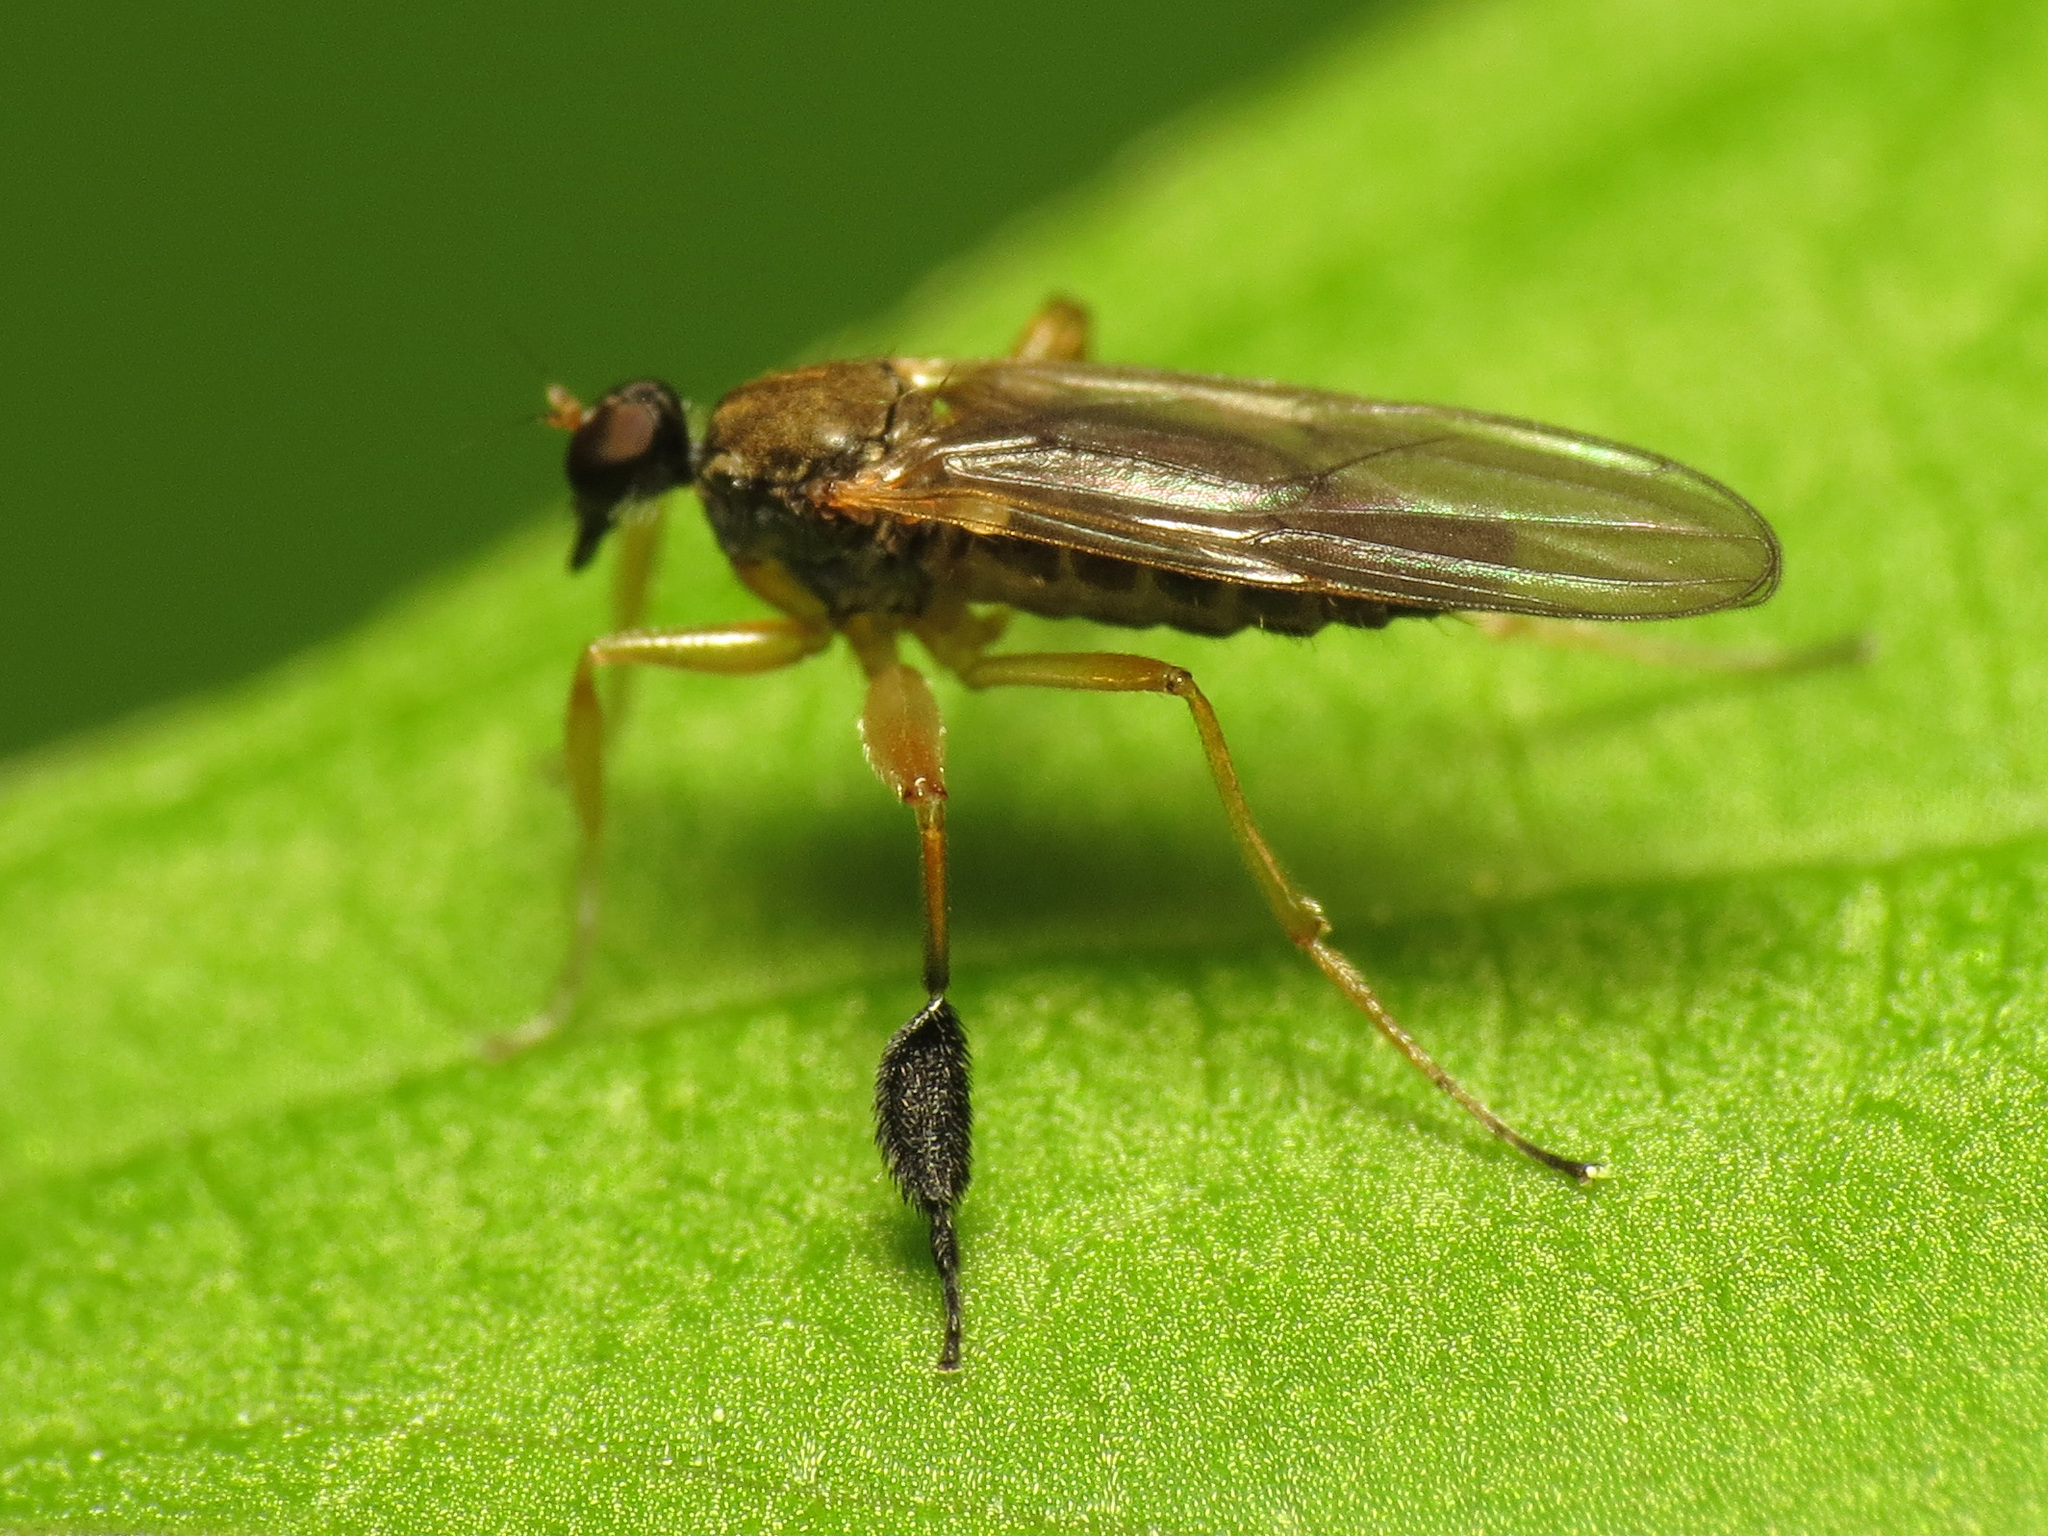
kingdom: Animalia
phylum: Arthropoda
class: Insecta
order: Diptera
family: Hybotidae
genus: Platypalpus
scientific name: Platypalpus discifer
